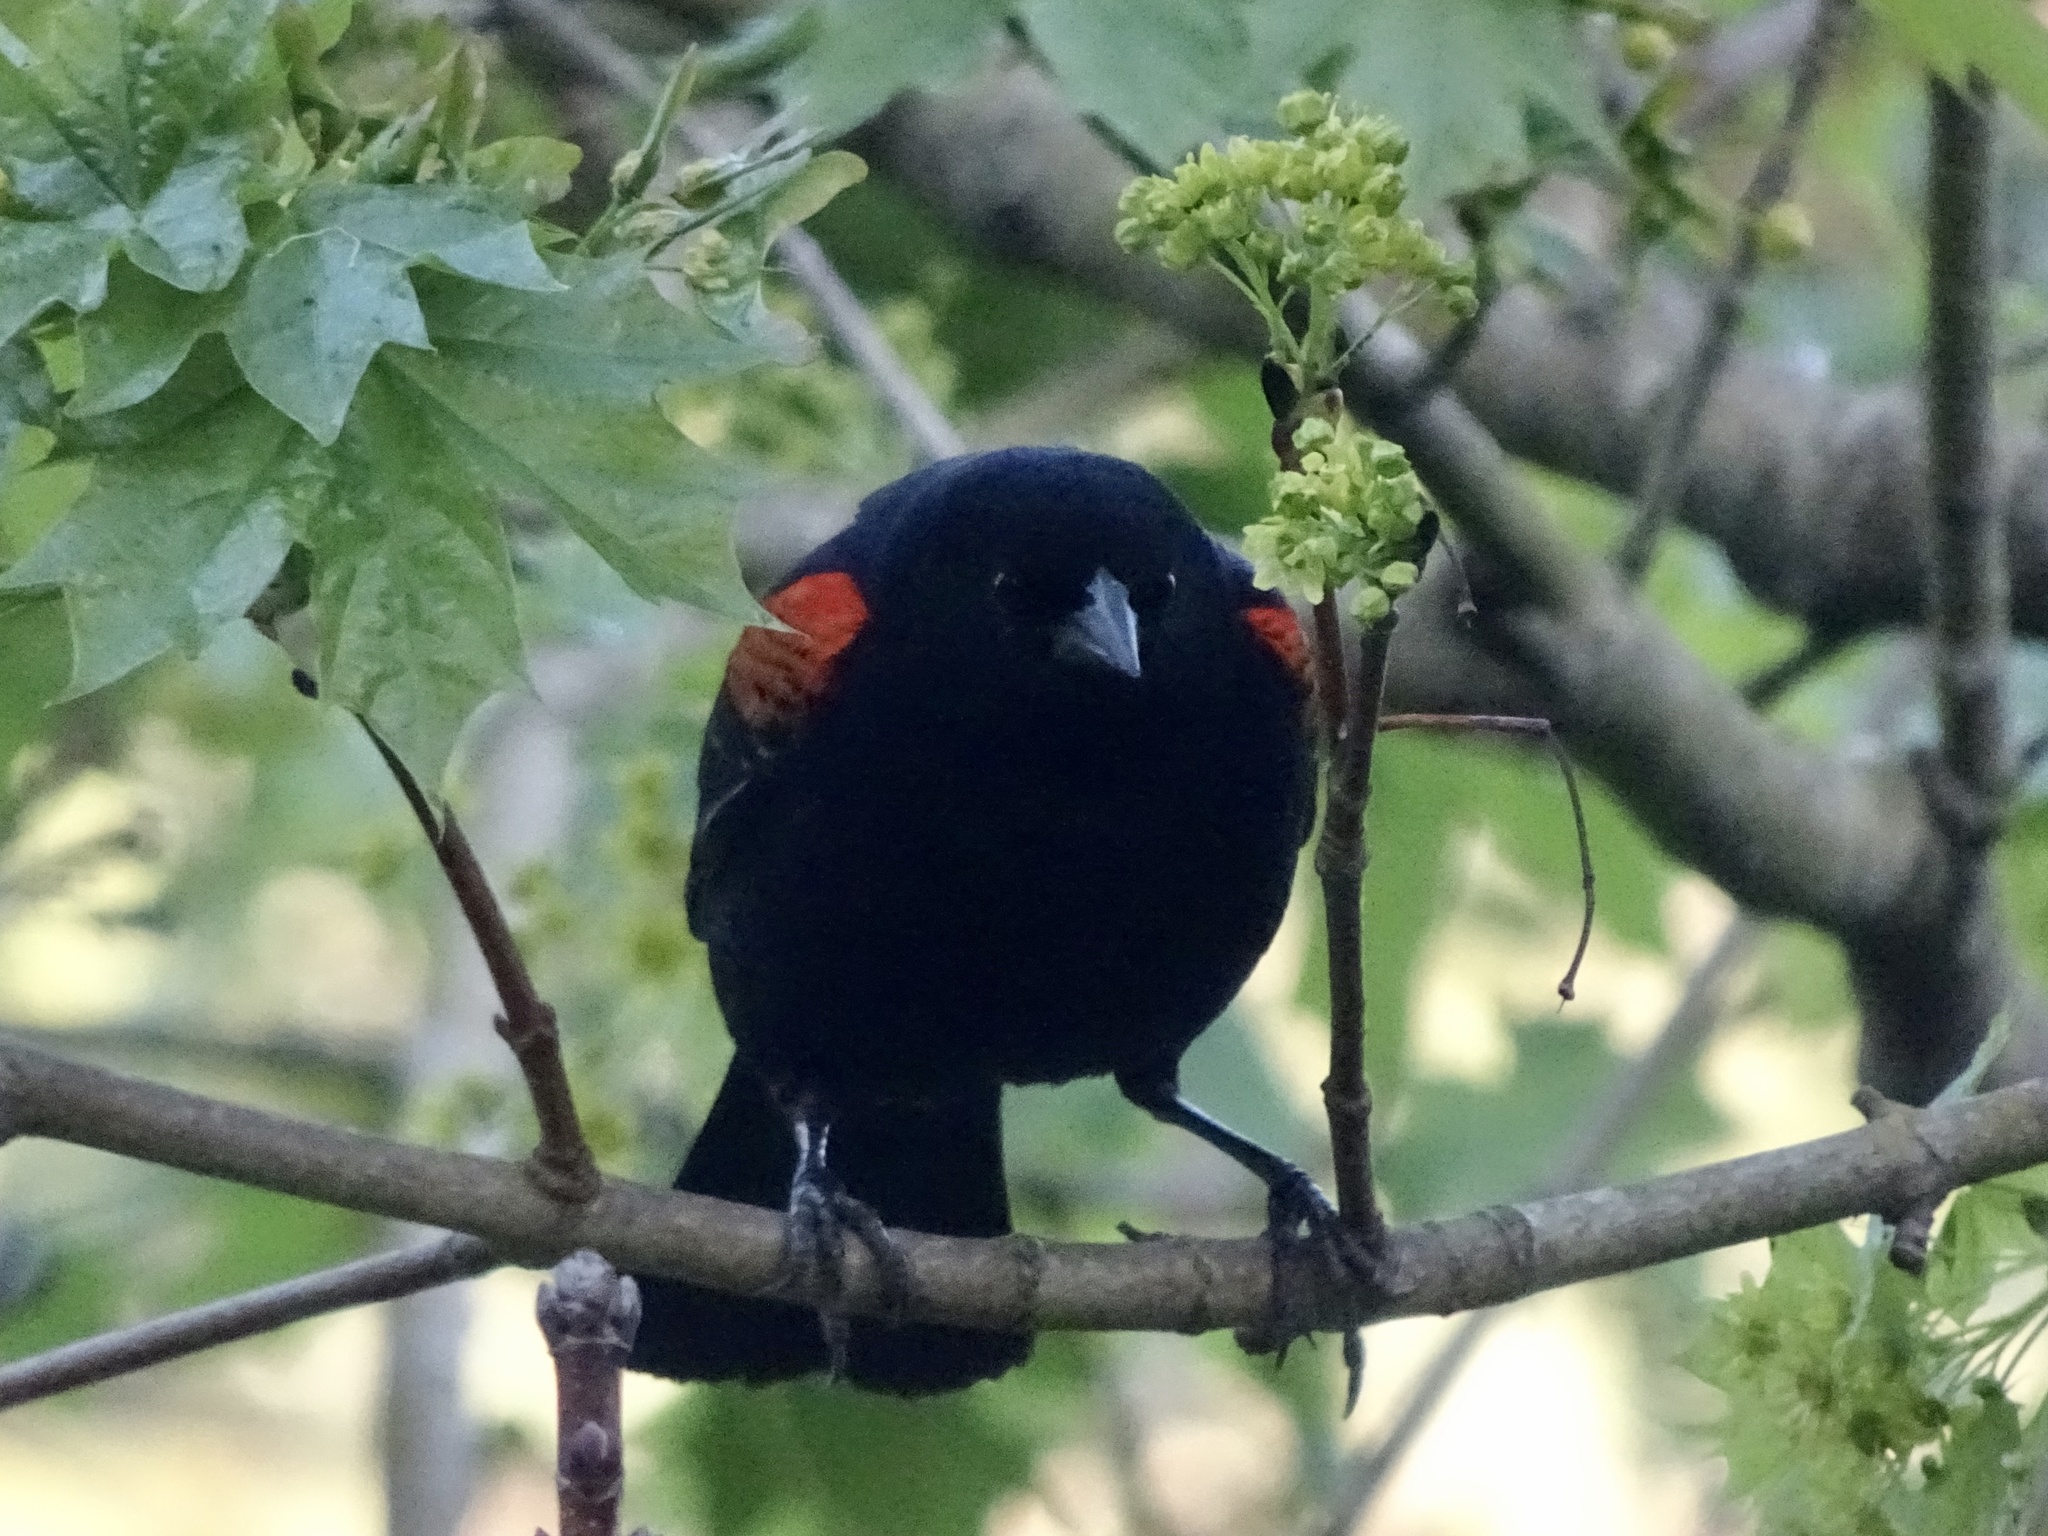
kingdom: Animalia
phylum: Chordata
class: Aves
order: Passeriformes
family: Icteridae
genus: Agelaius
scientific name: Agelaius phoeniceus
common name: Red-winged blackbird
